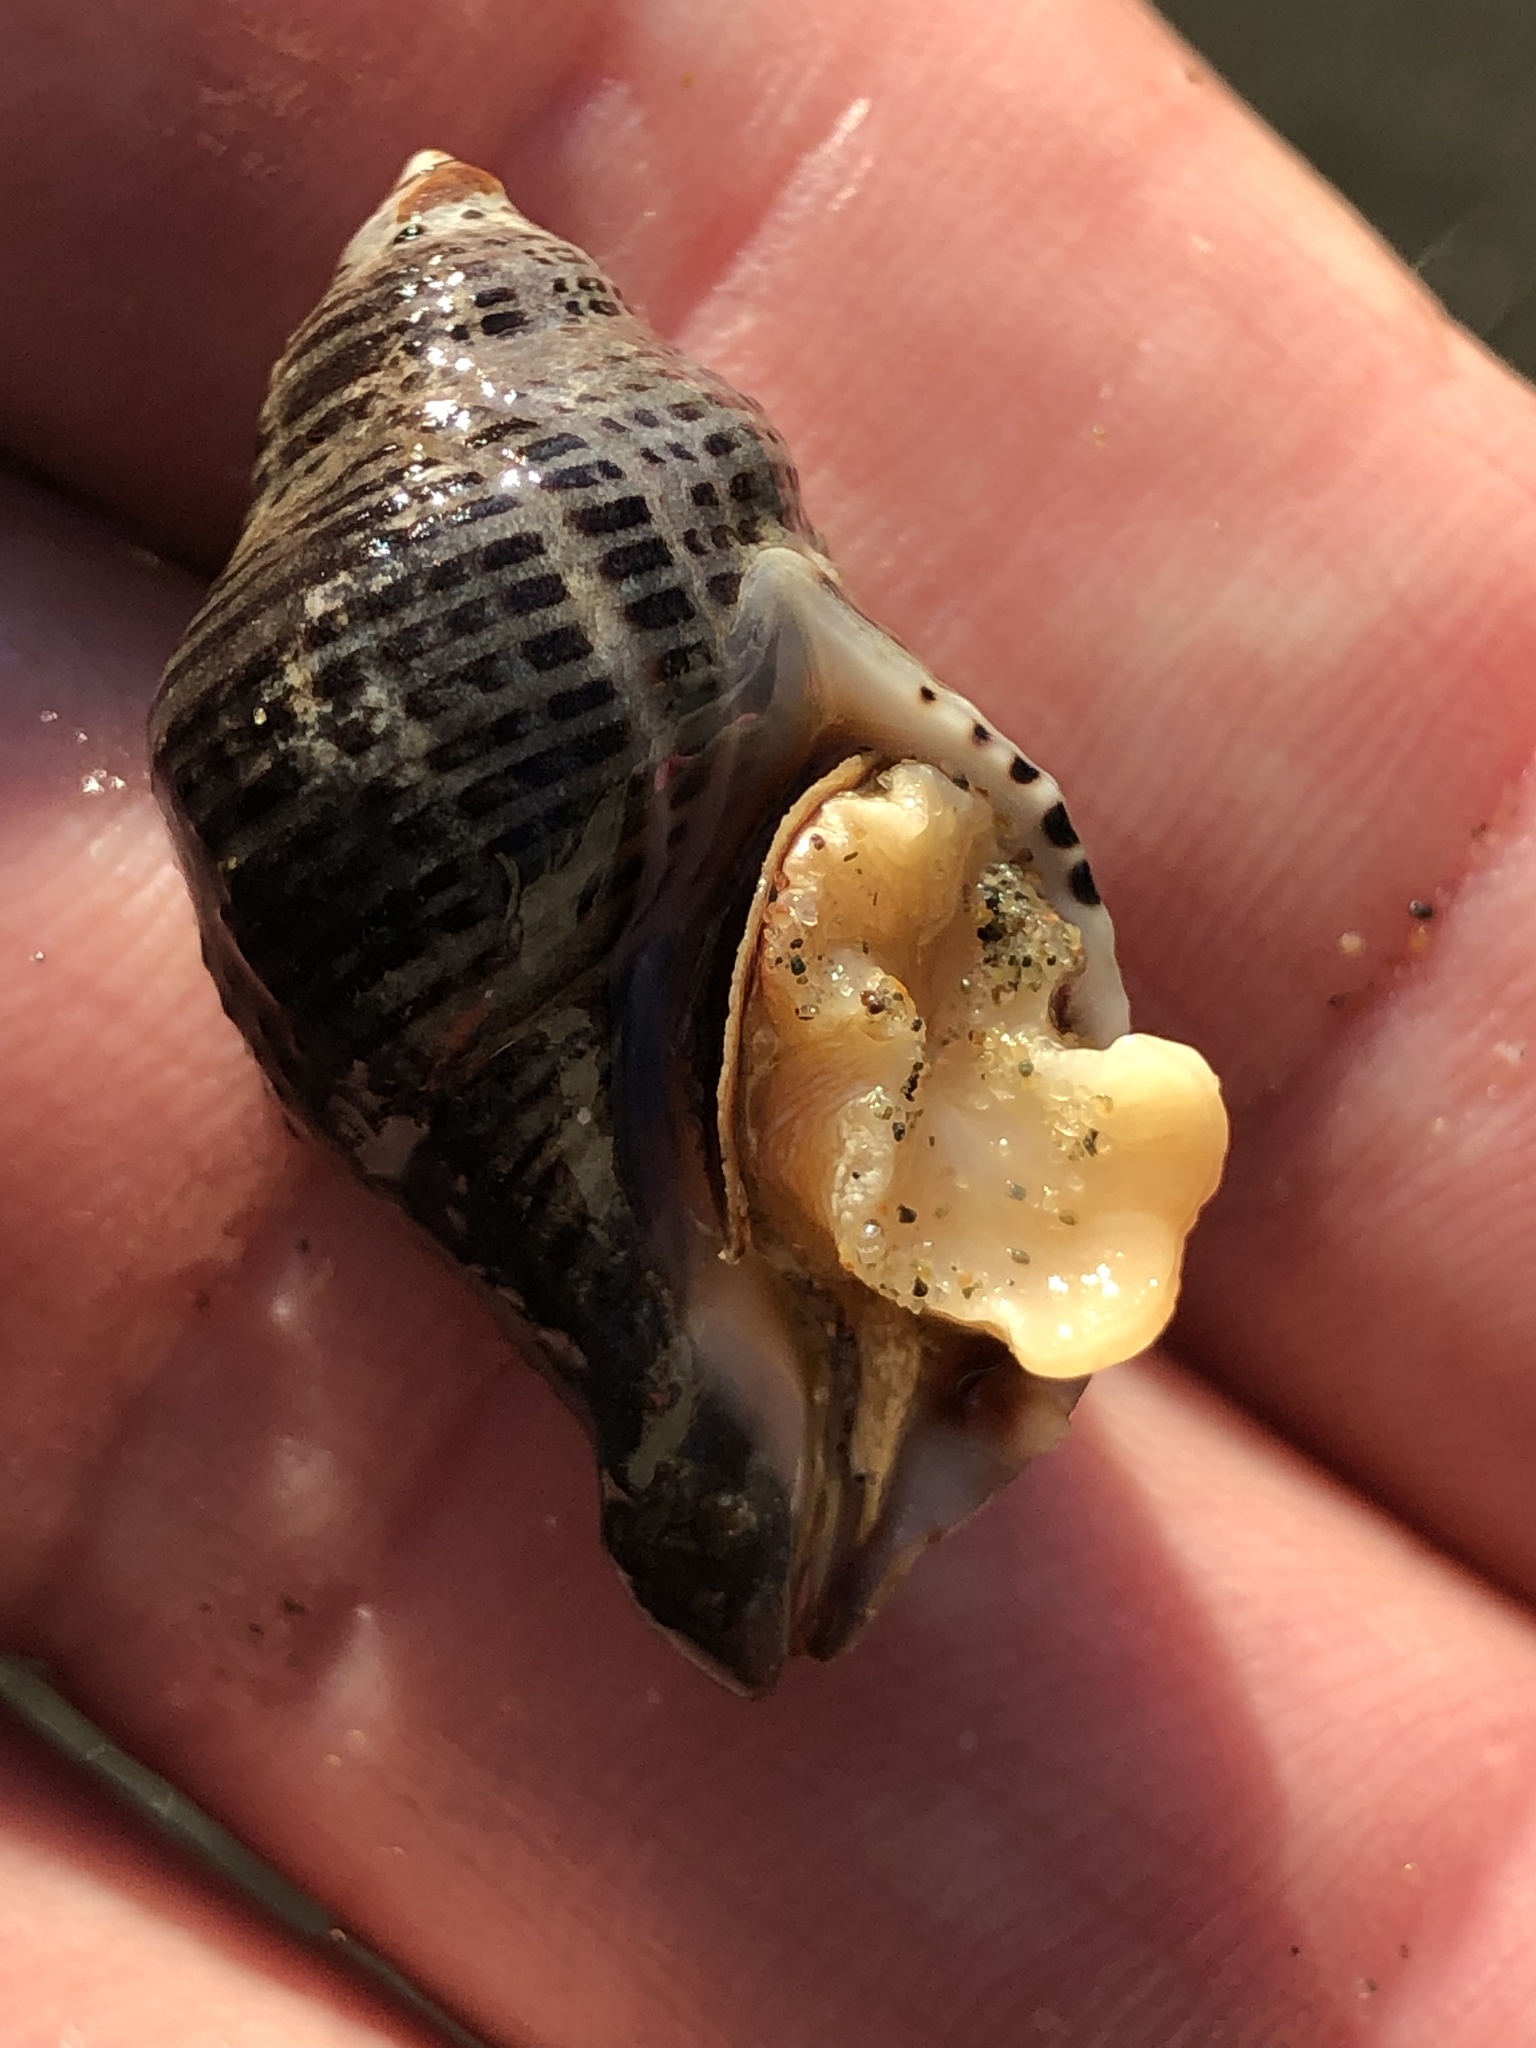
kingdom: Animalia
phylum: Mollusca
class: Gastropoda
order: Neogastropoda
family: Muricidae
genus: Acanthinucella
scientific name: Acanthinucella spirata
